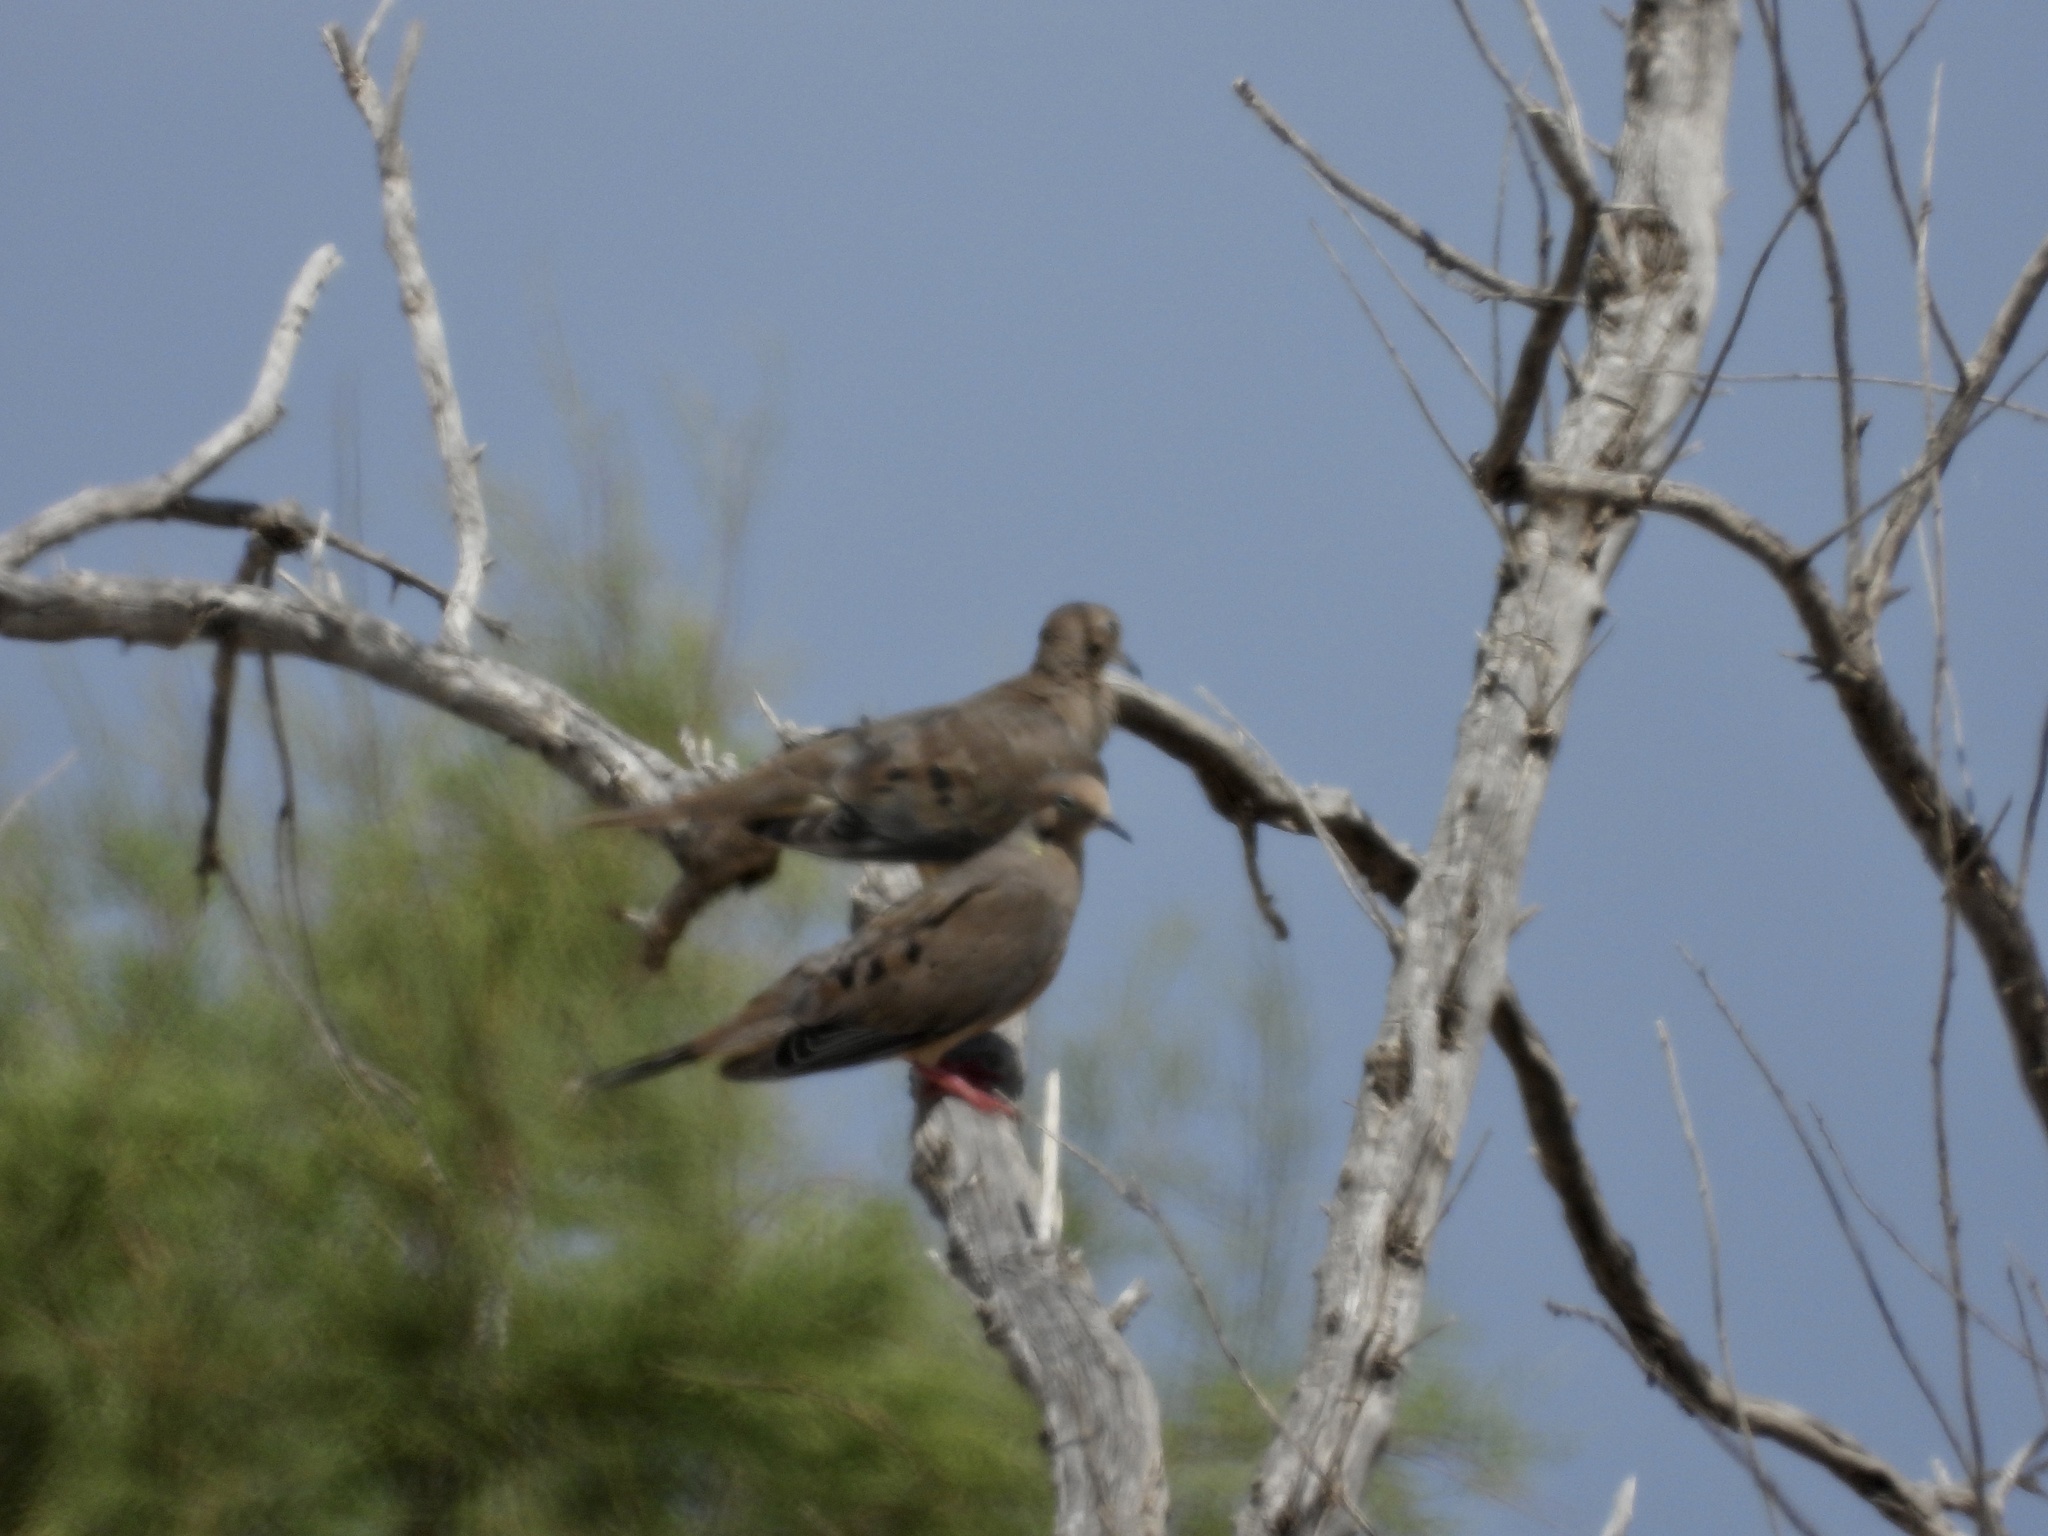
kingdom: Animalia
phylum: Chordata
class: Aves
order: Columbiformes
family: Columbidae
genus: Zenaida
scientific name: Zenaida macroura
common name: Mourning dove
